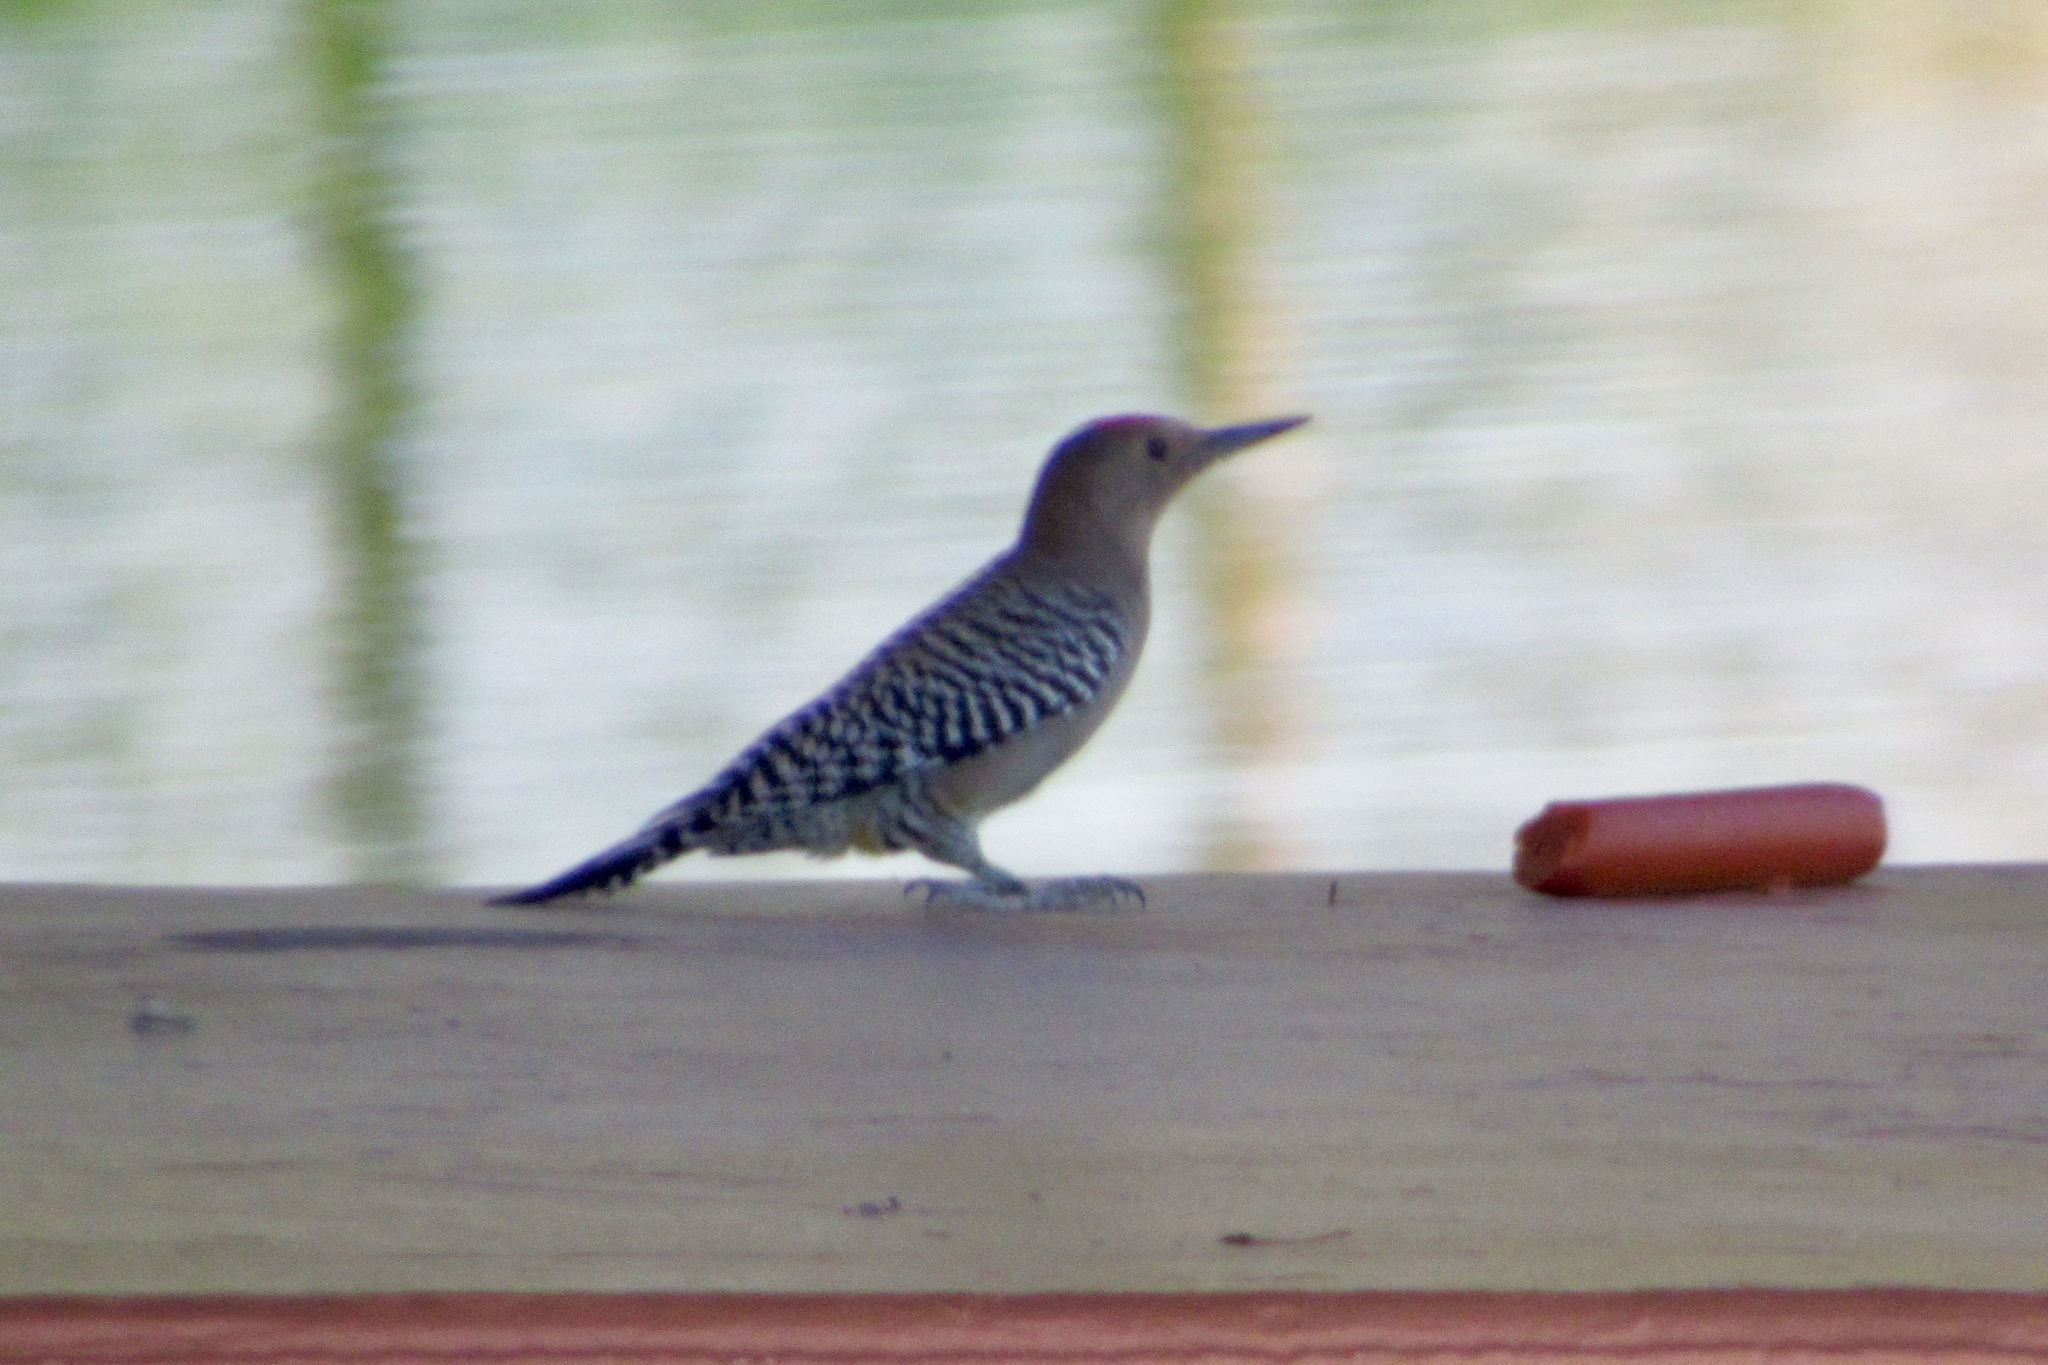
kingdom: Animalia
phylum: Chordata
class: Aves
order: Piciformes
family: Picidae
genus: Melanerpes
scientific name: Melanerpes uropygialis
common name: Gila woodpecker
